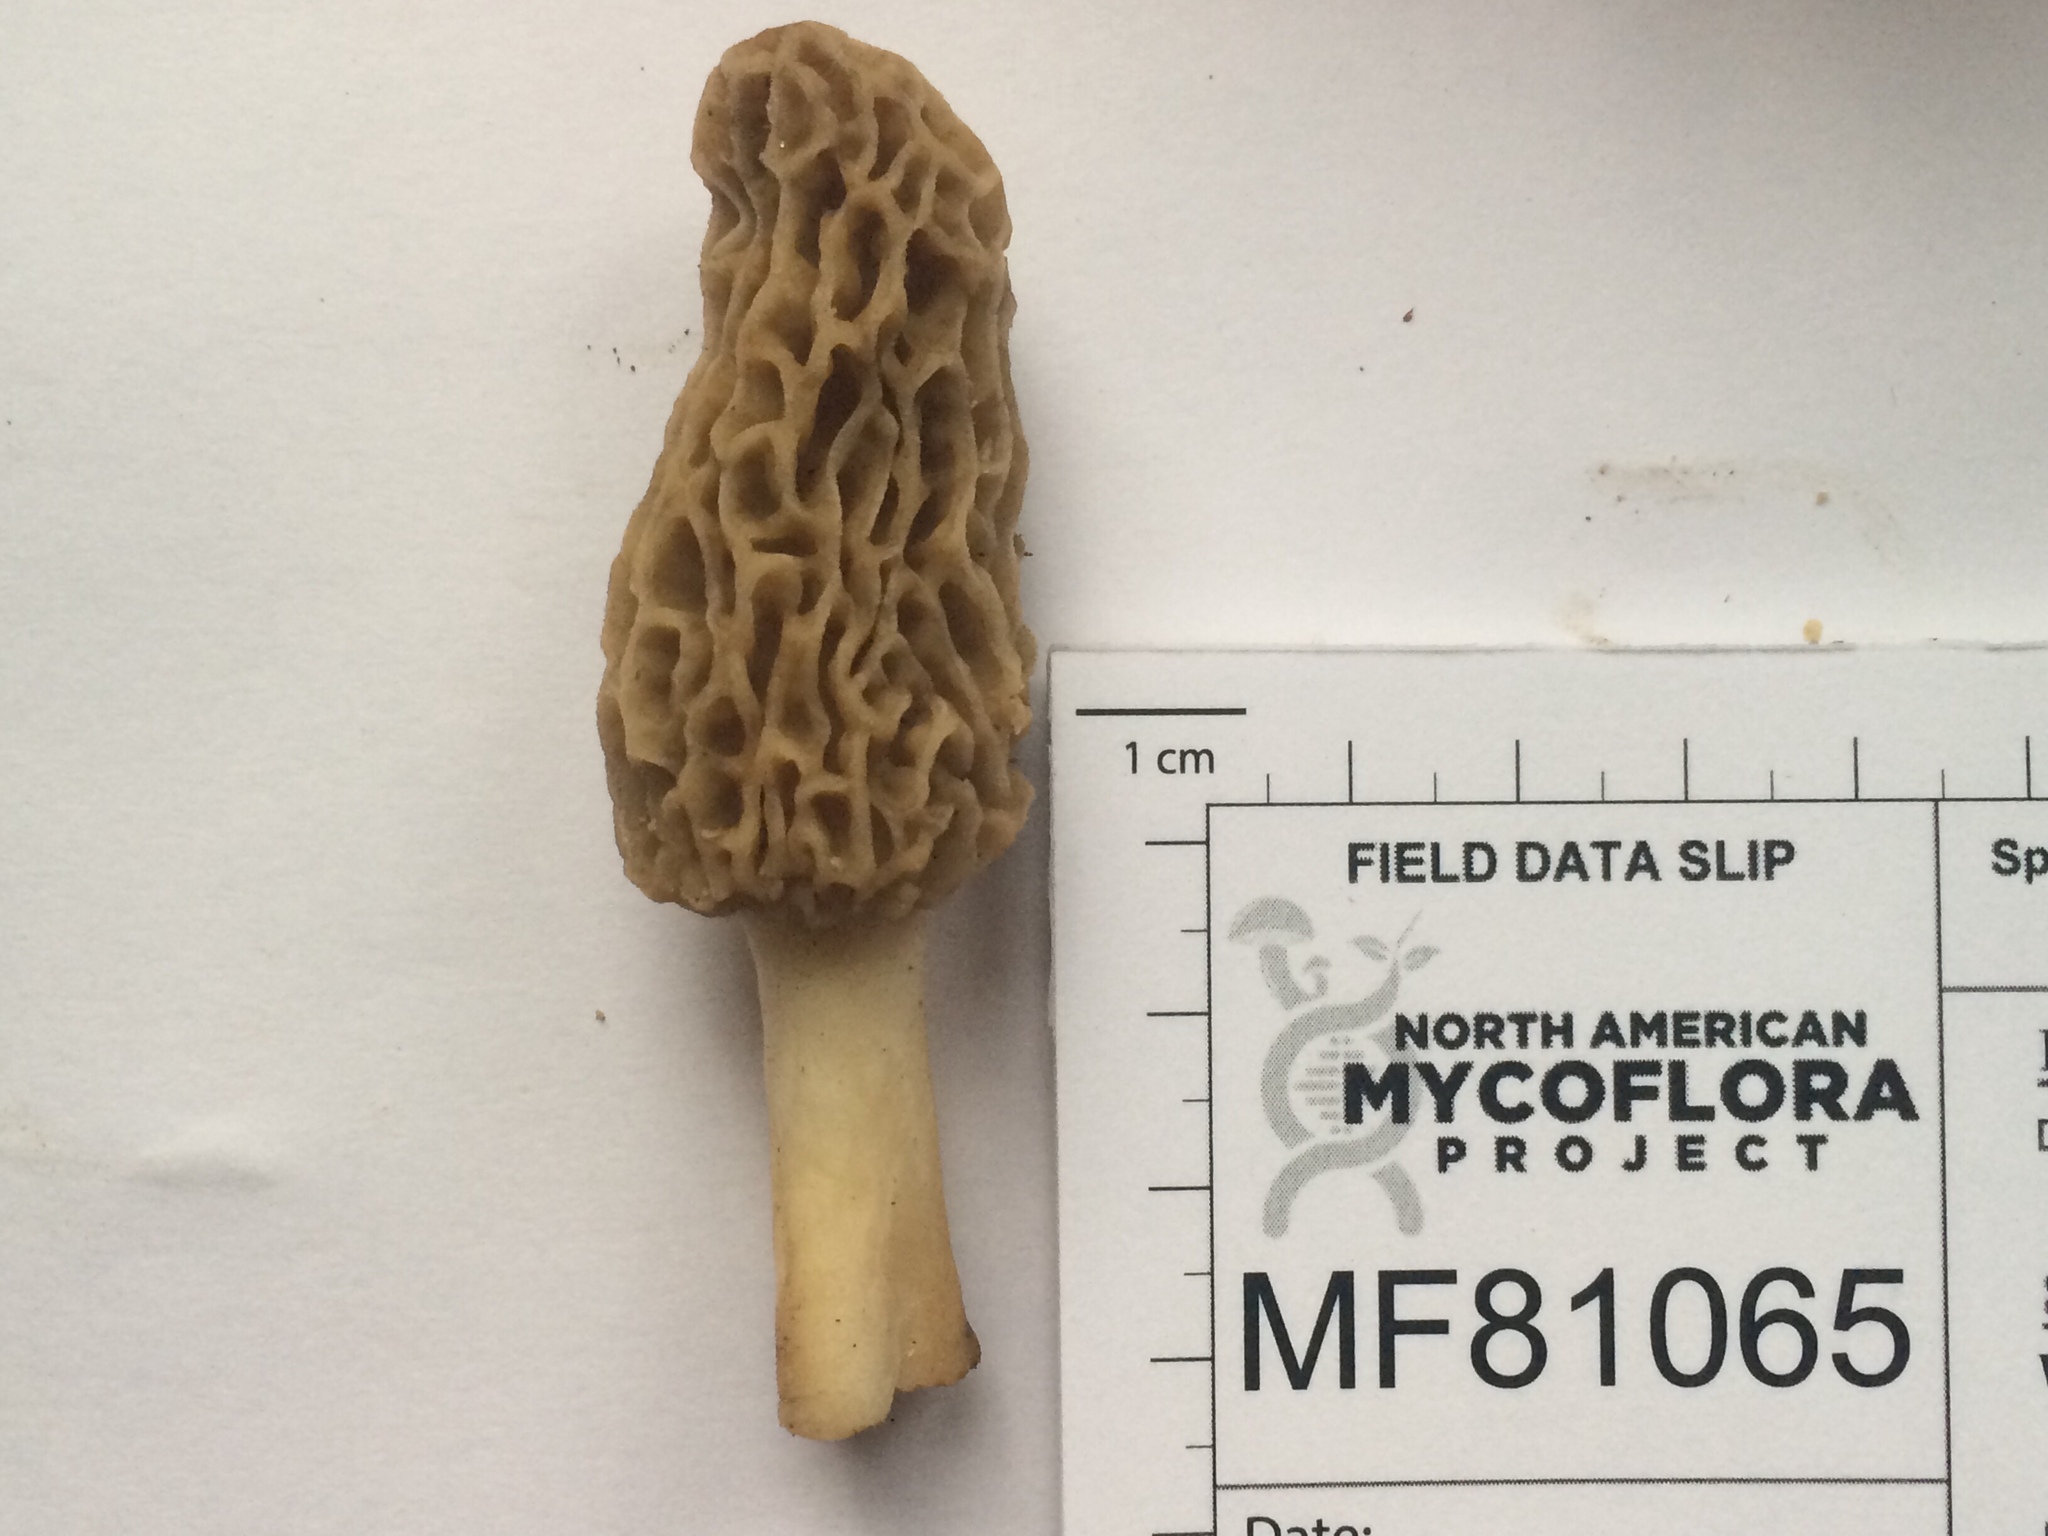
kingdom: Fungi
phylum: Ascomycota
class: Pezizomycetes
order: Pezizales
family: Morchellaceae
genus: Morchella
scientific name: Morchella americana
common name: White morel
